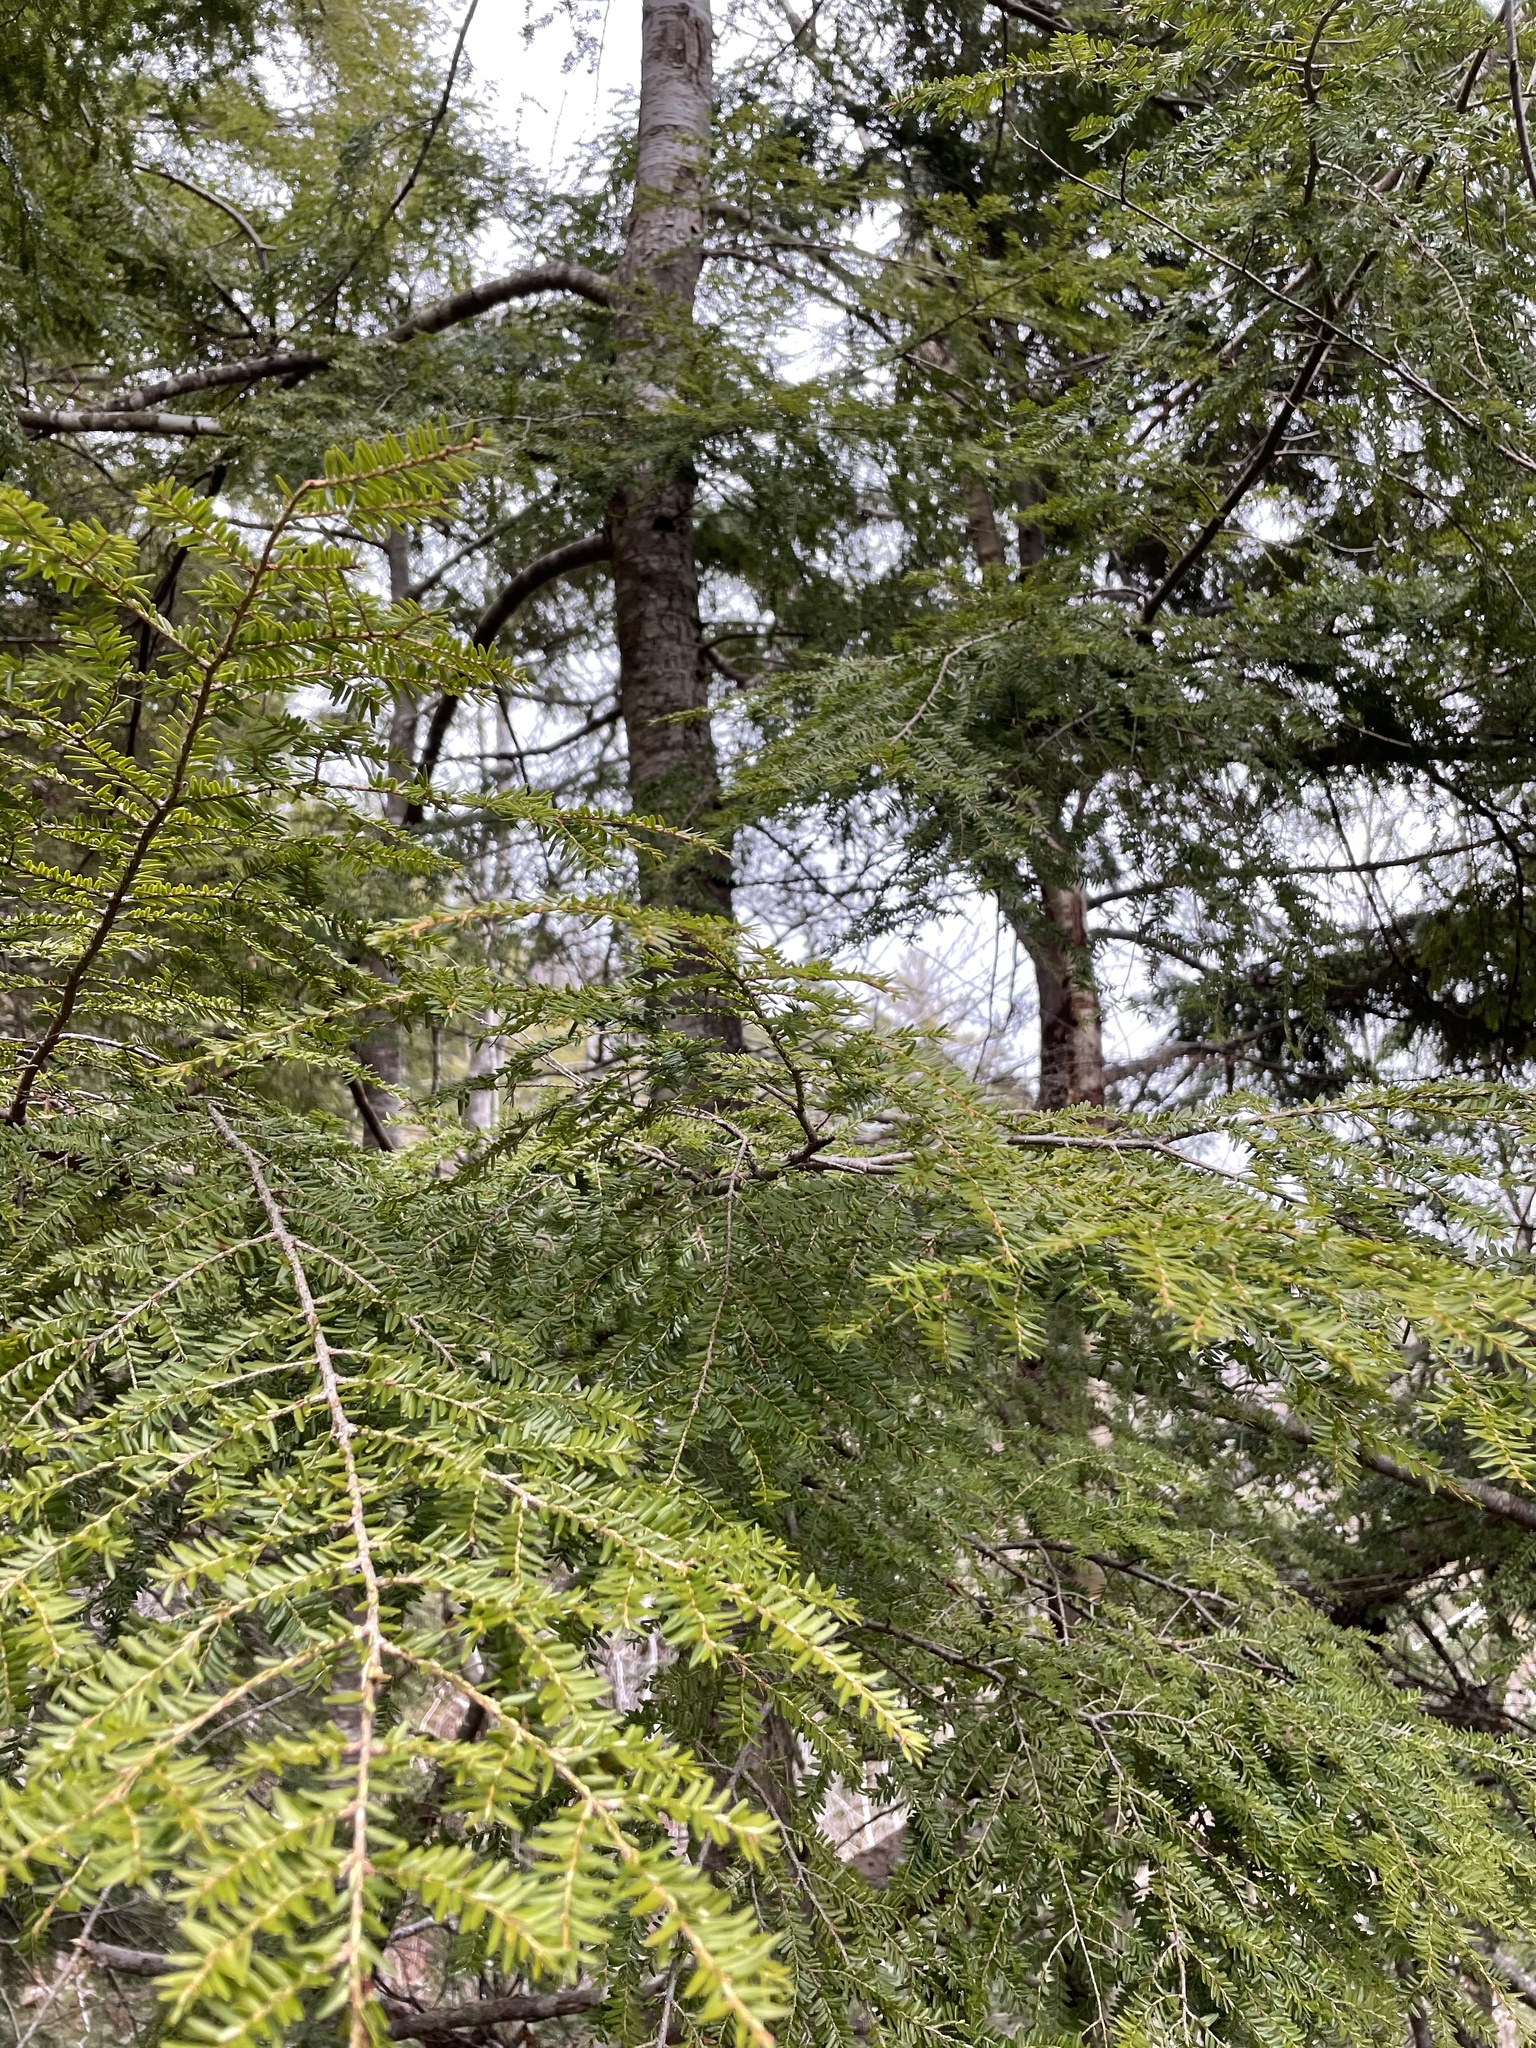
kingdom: Plantae
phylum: Tracheophyta
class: Pinopsida
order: Pinales
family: Pinaceae
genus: Tsuga
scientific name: Tsuga canadensis
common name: Eastern hemlock
